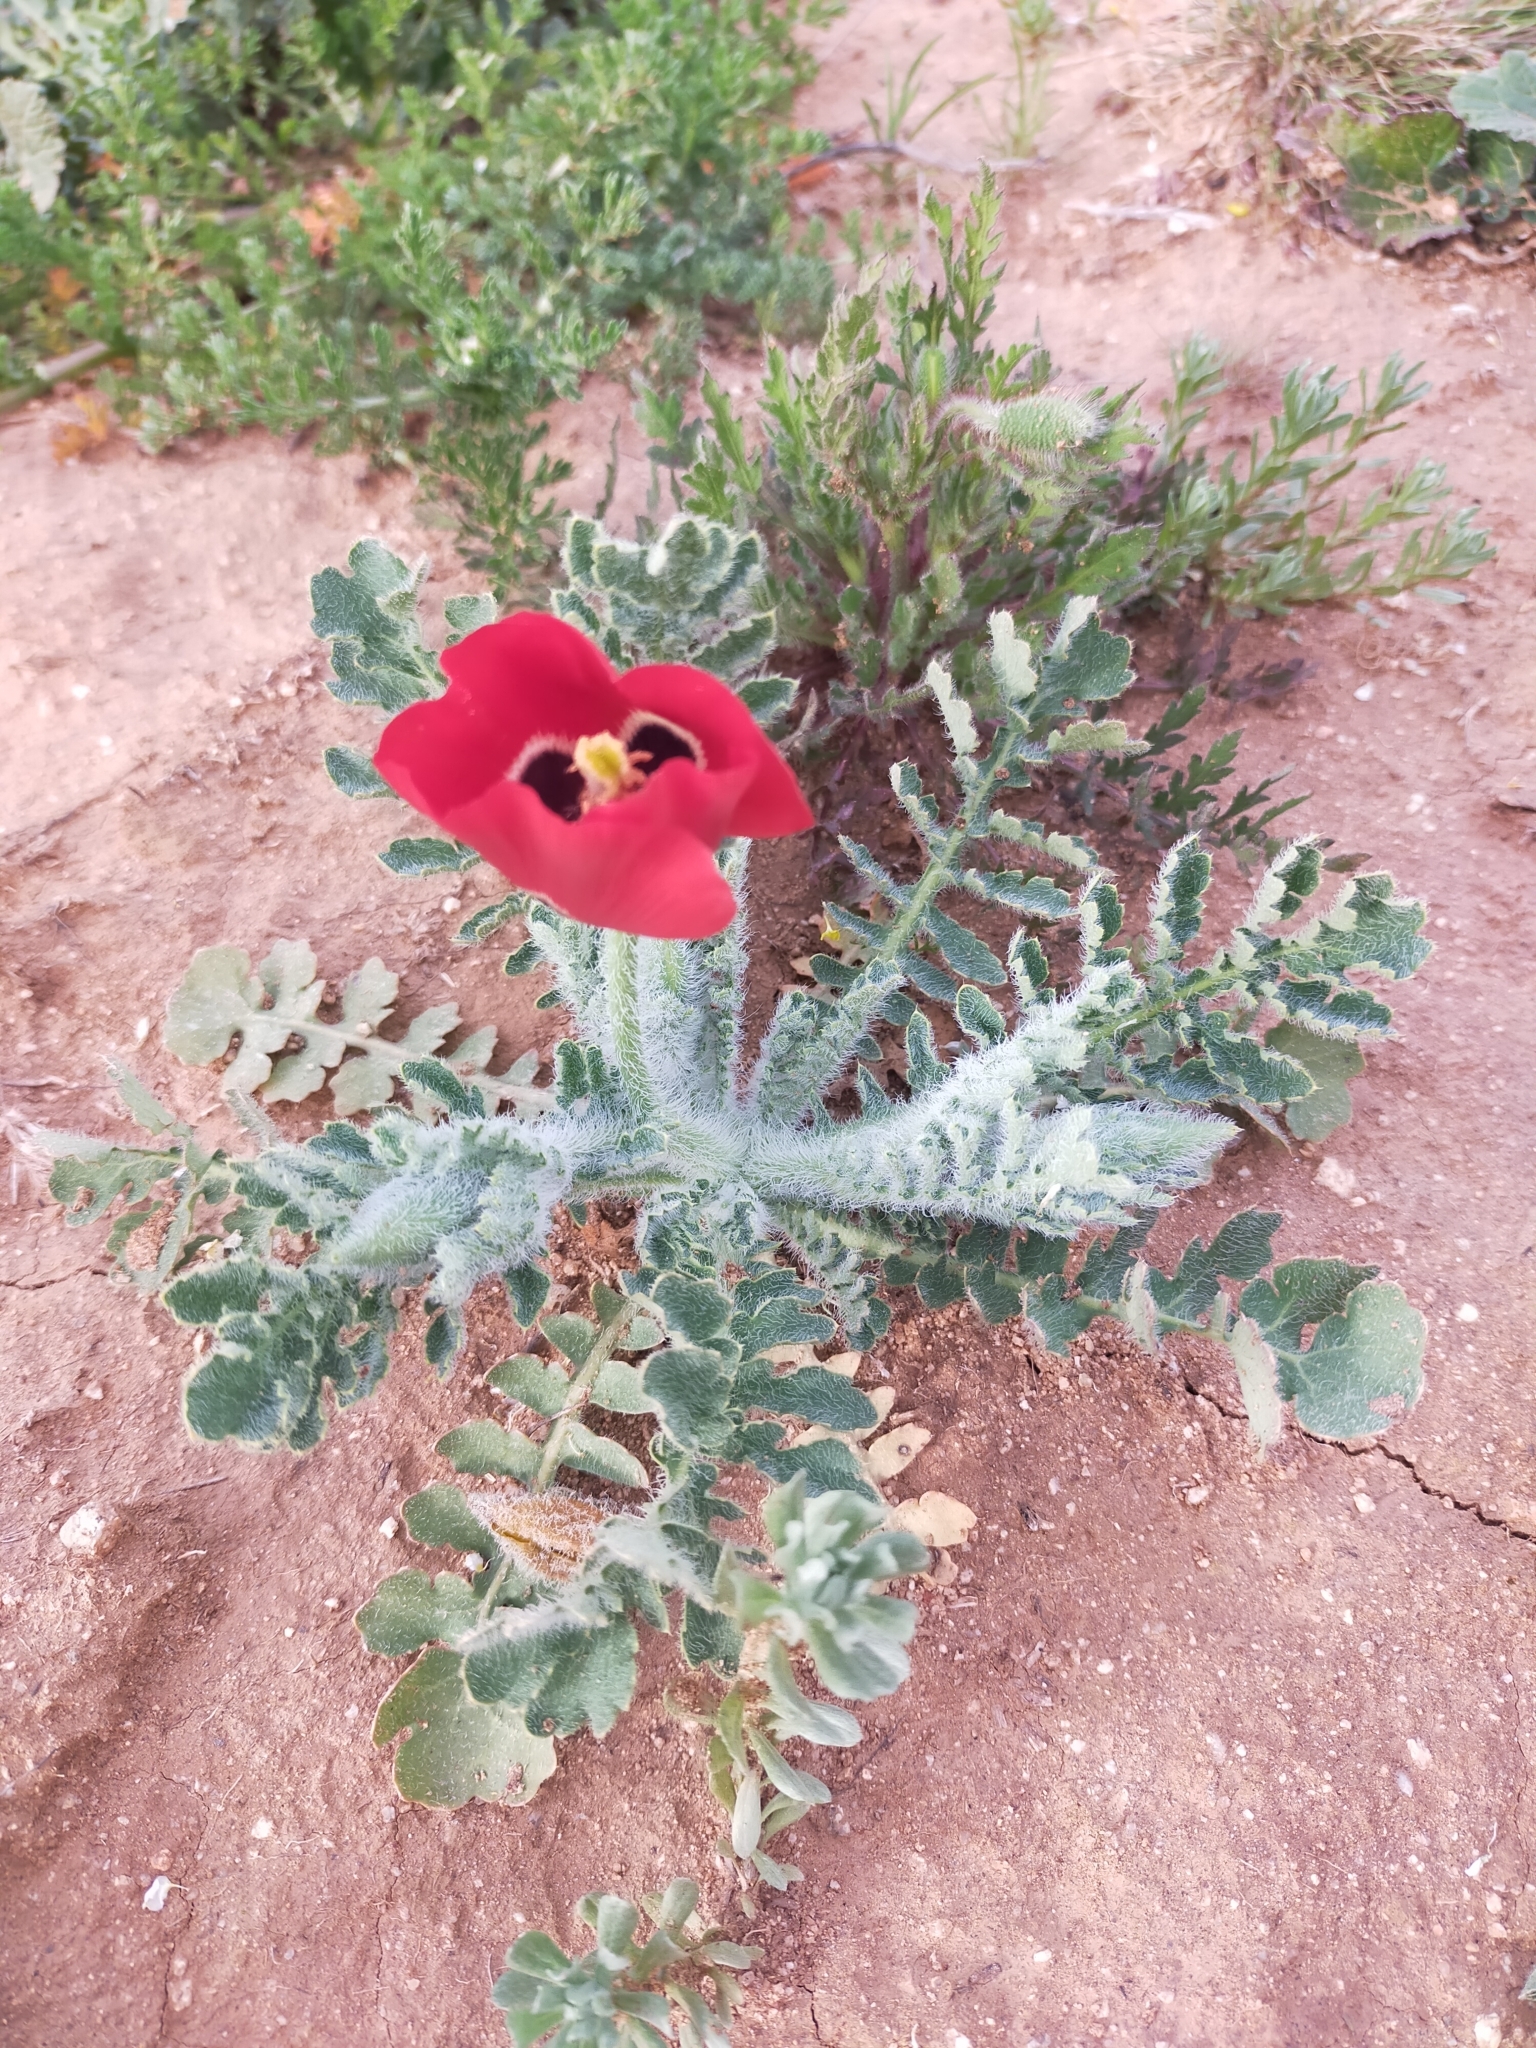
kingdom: Plantae
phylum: Tracheophyta
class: Magnoliopsida
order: Ranunculales
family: Papaveraceae
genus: Glaucium
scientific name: Glaucium corniculatum
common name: Red horned-poppy
